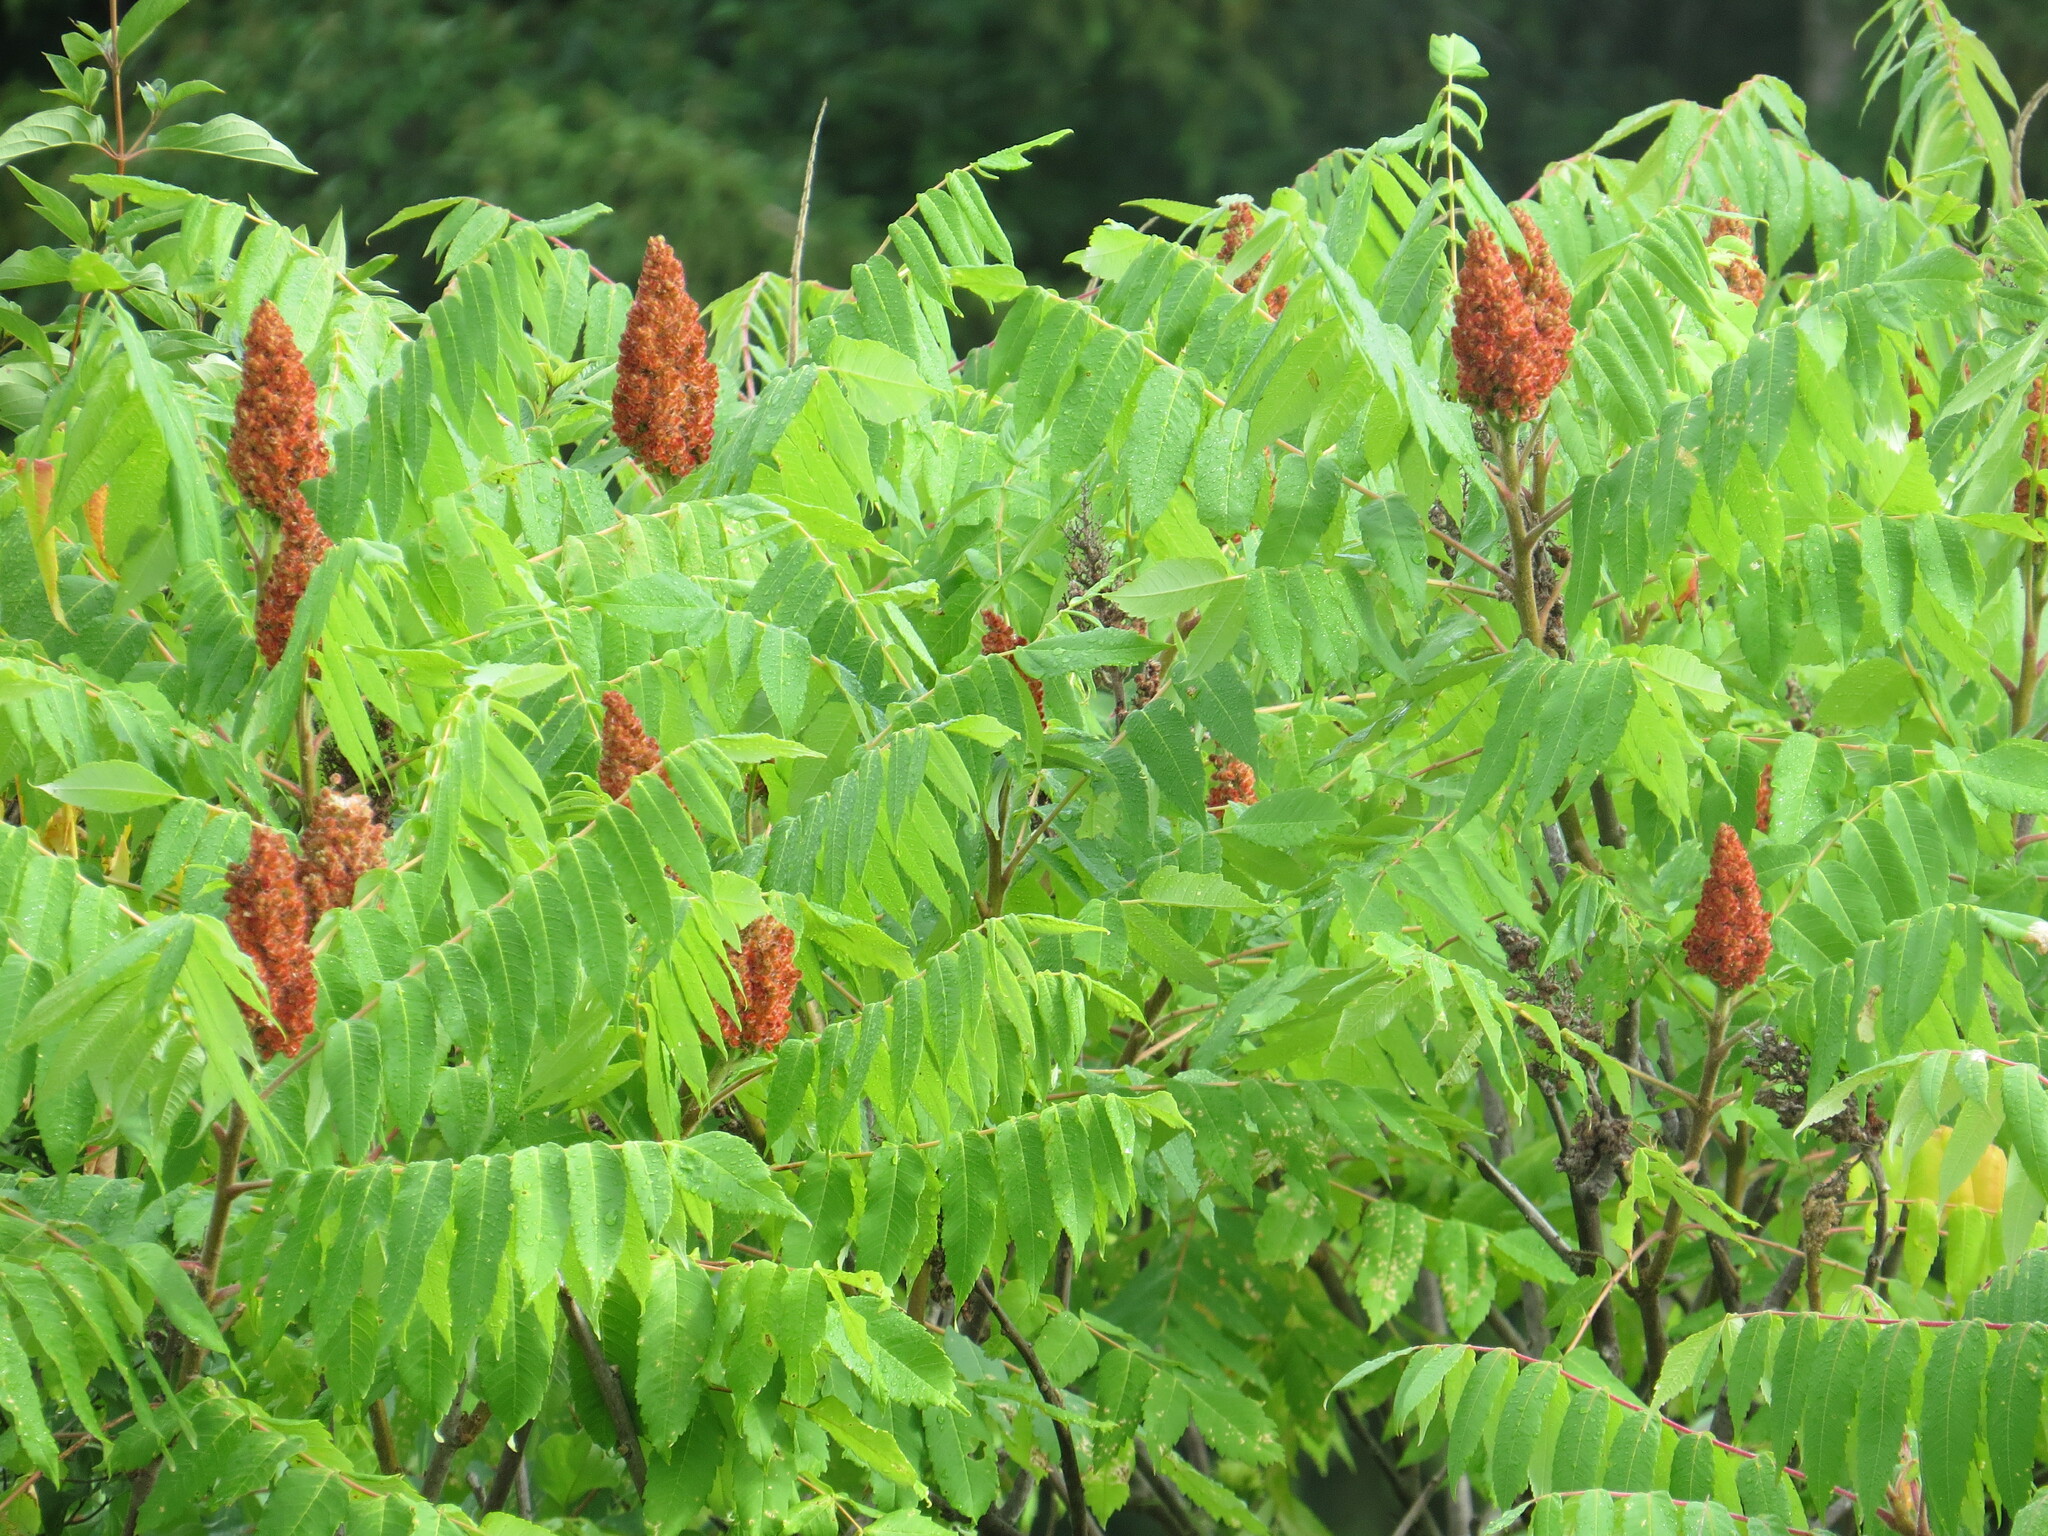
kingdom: Plantae
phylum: Tracheophyta
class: Magnoliopsida
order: Sapindales
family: Anacardiaceae
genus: Rhus
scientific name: Rhus typhina
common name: Staghorn sumac
